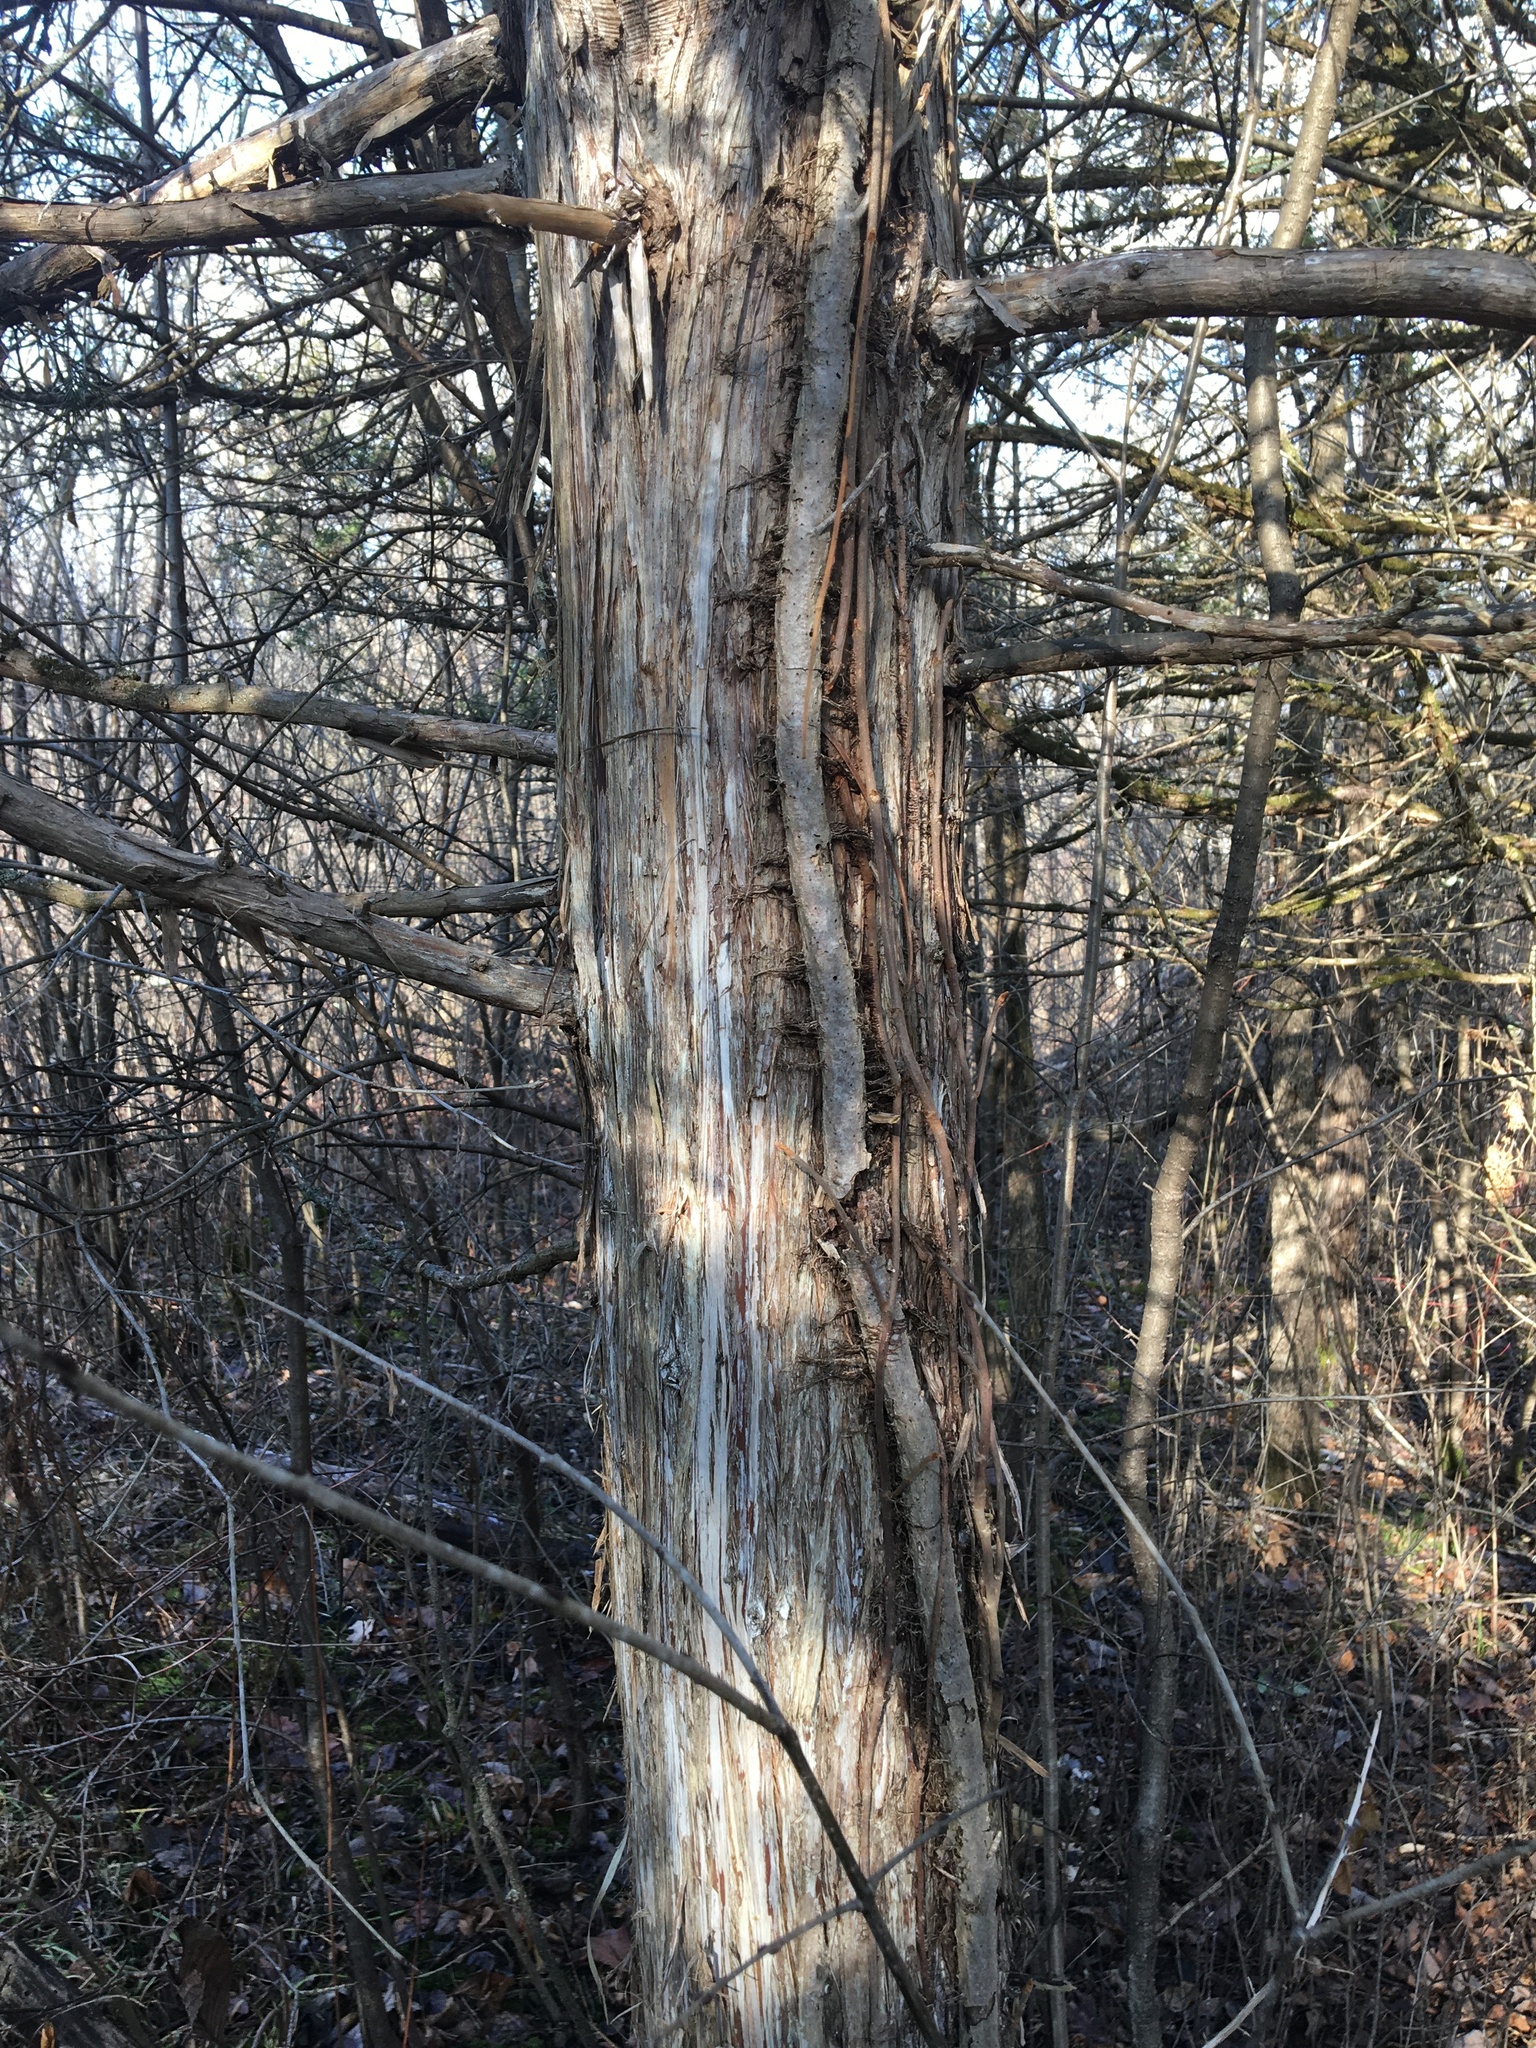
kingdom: Plantae
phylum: Tracheophyta
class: Magnoliopsida
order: Sapindales
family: Anacardiaceae
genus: Toxicodendron
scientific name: Toxicodendron radicans
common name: Poison ivy
